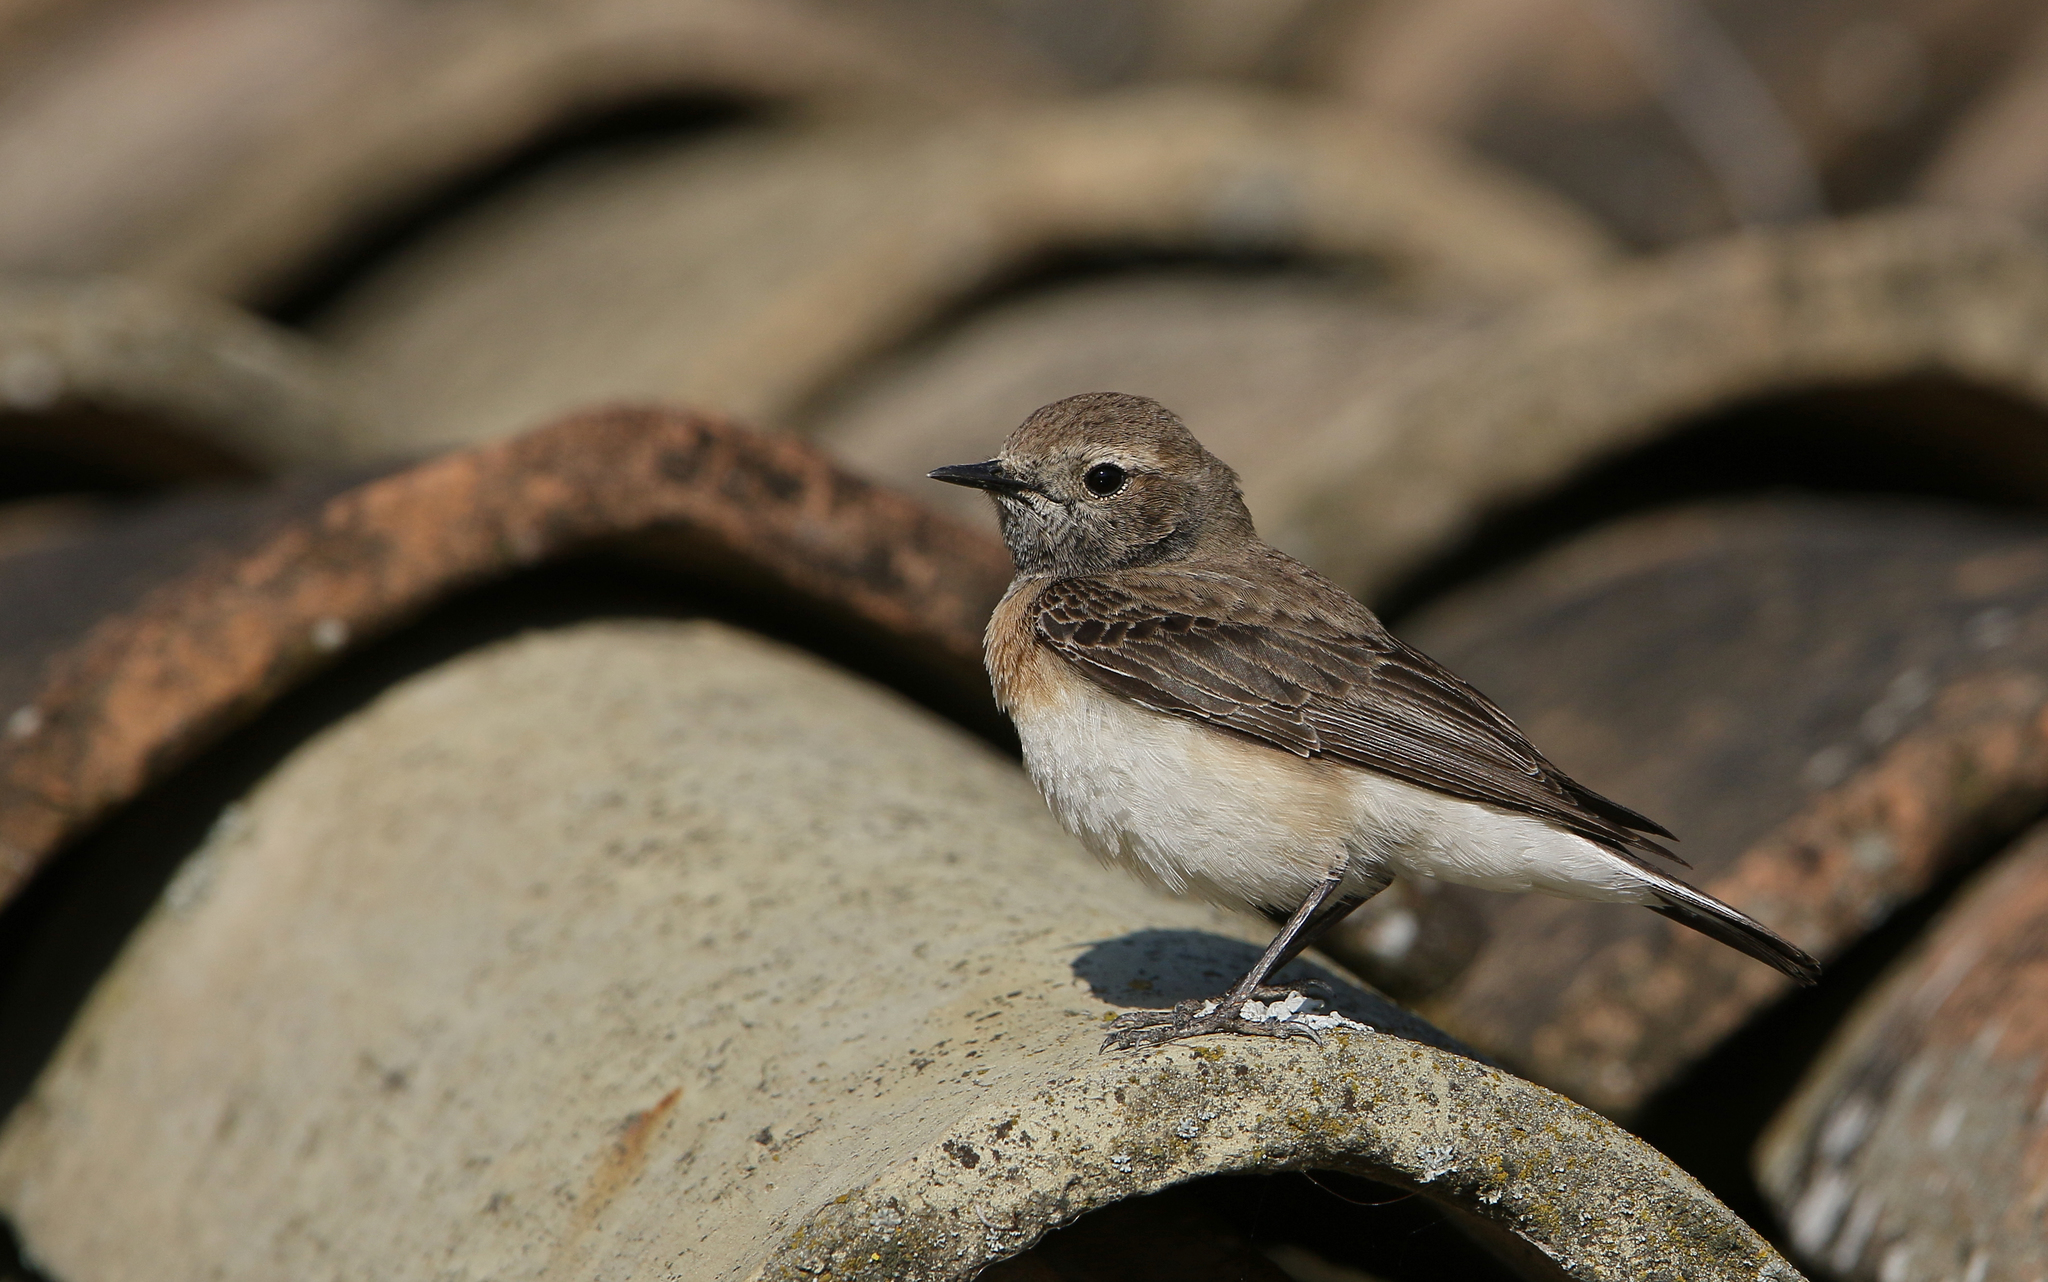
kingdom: Animalia
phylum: Chordata
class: Aves
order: Passeriformes
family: Muscicapidae
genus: Oenanthe
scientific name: Oenanthe hispanica
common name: Black-eared wheatear
